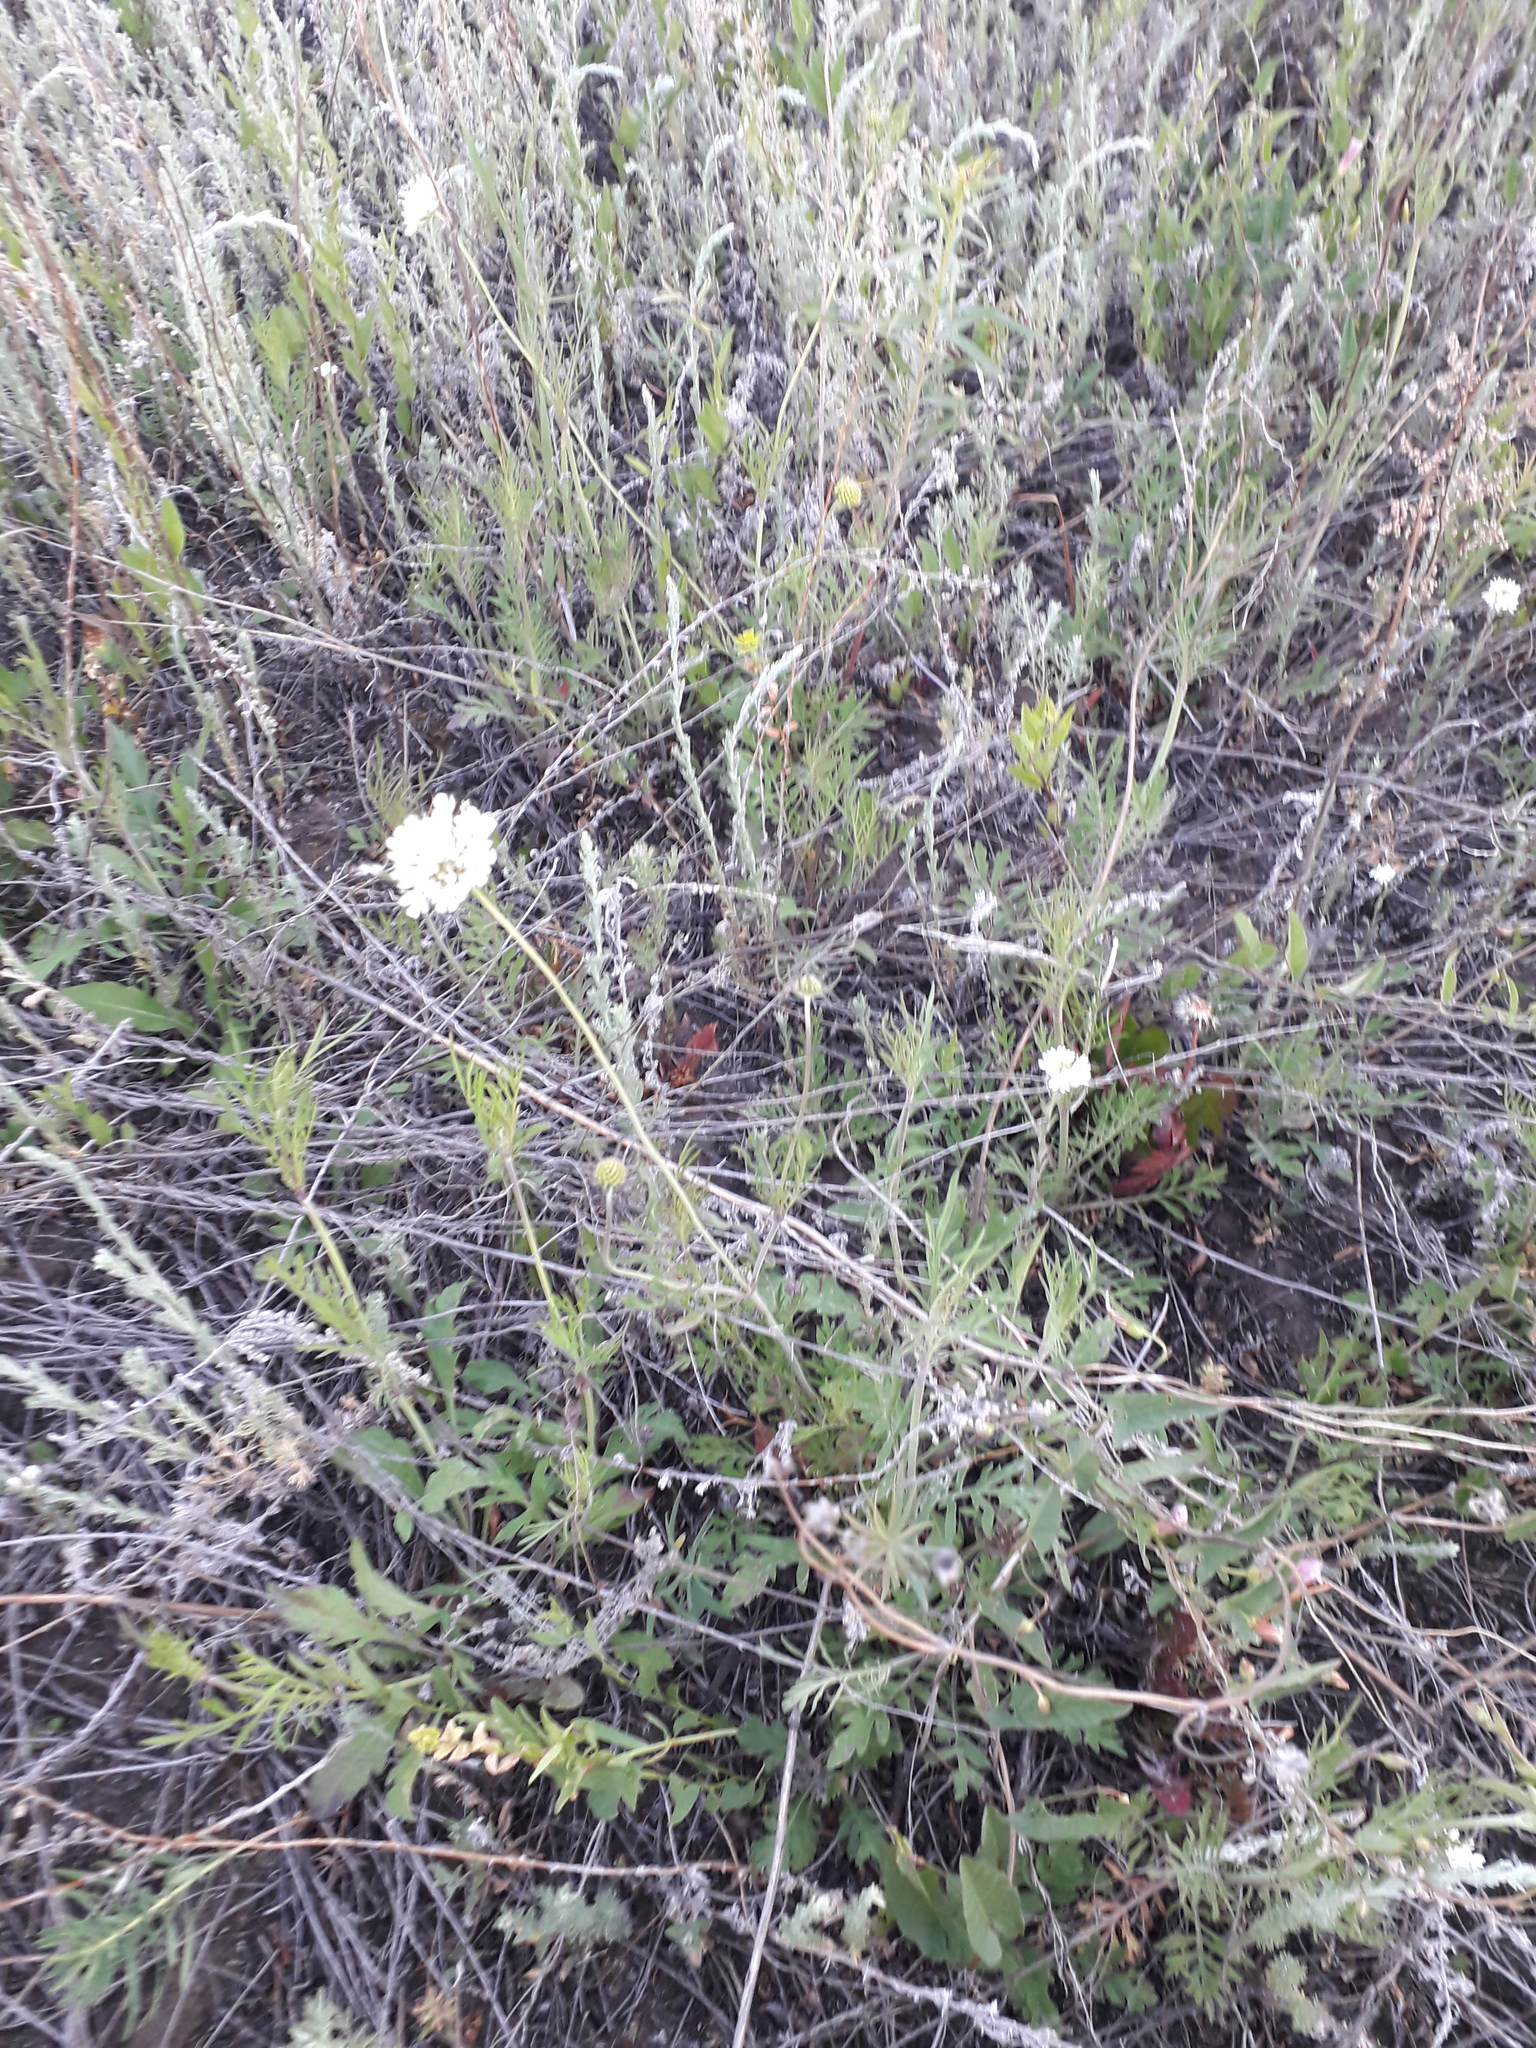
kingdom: Plantae
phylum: Tracheophyta
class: Magnoliopsida
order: Dipsacales
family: Caprifoliaceae
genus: Scabiosa
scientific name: Scabiosa ochroleuca
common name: Cream pincushions
